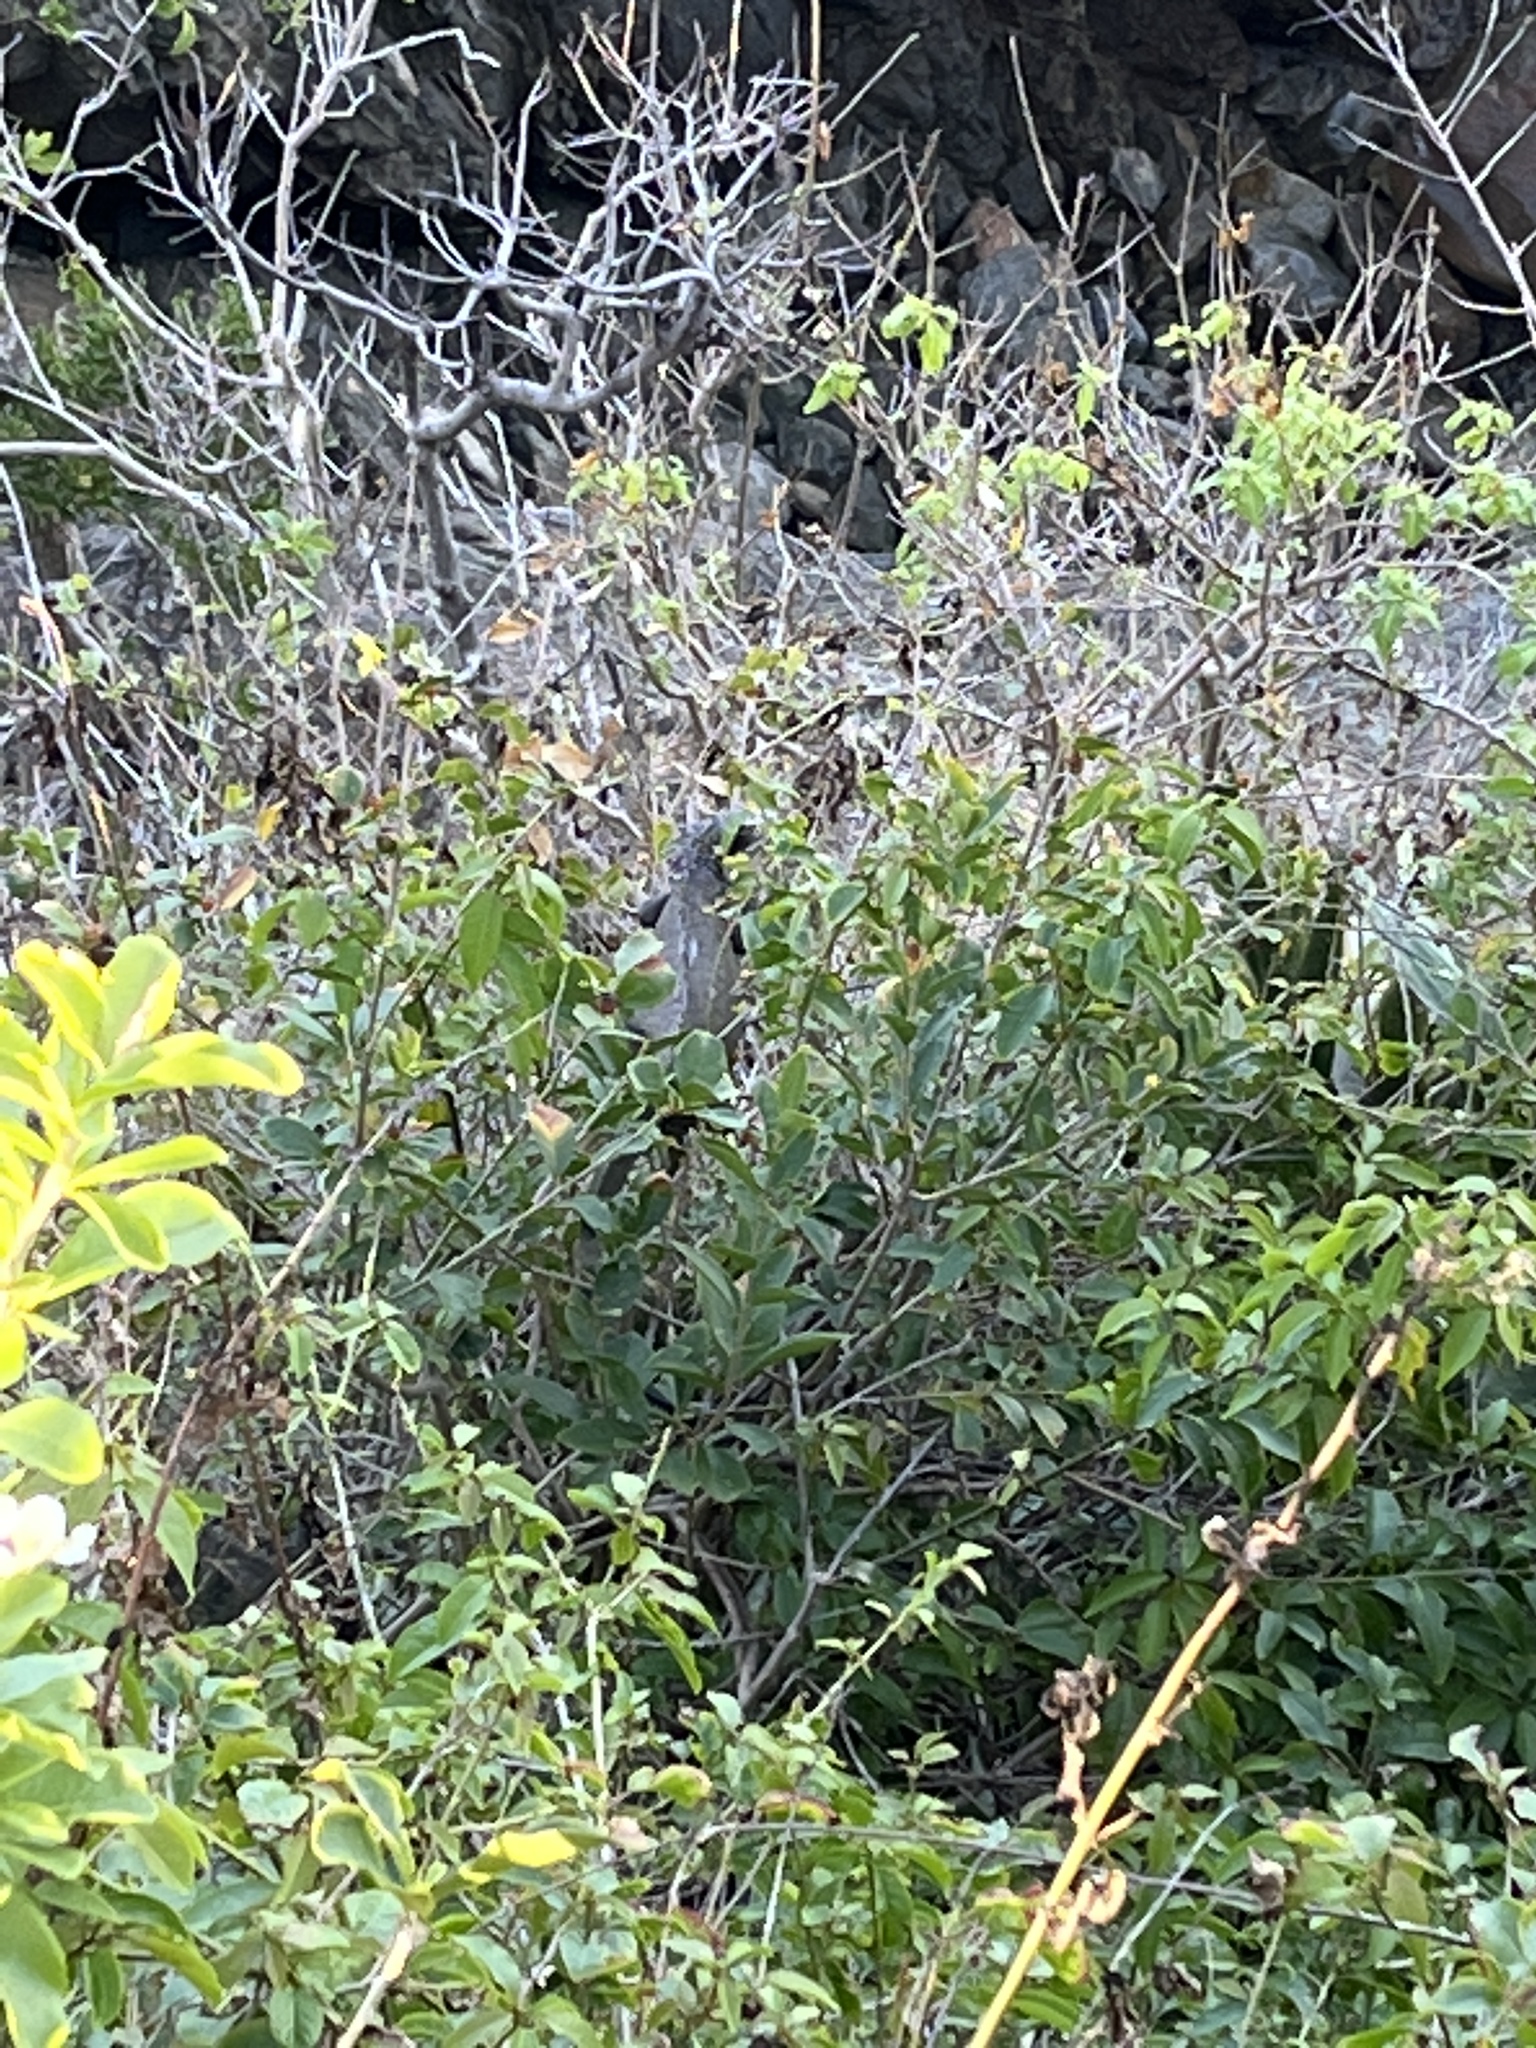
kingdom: Animalia
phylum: Chordata
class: Squamata
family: Iguanidae
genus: Iguana
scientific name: Iguana iguana
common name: Green iguana
